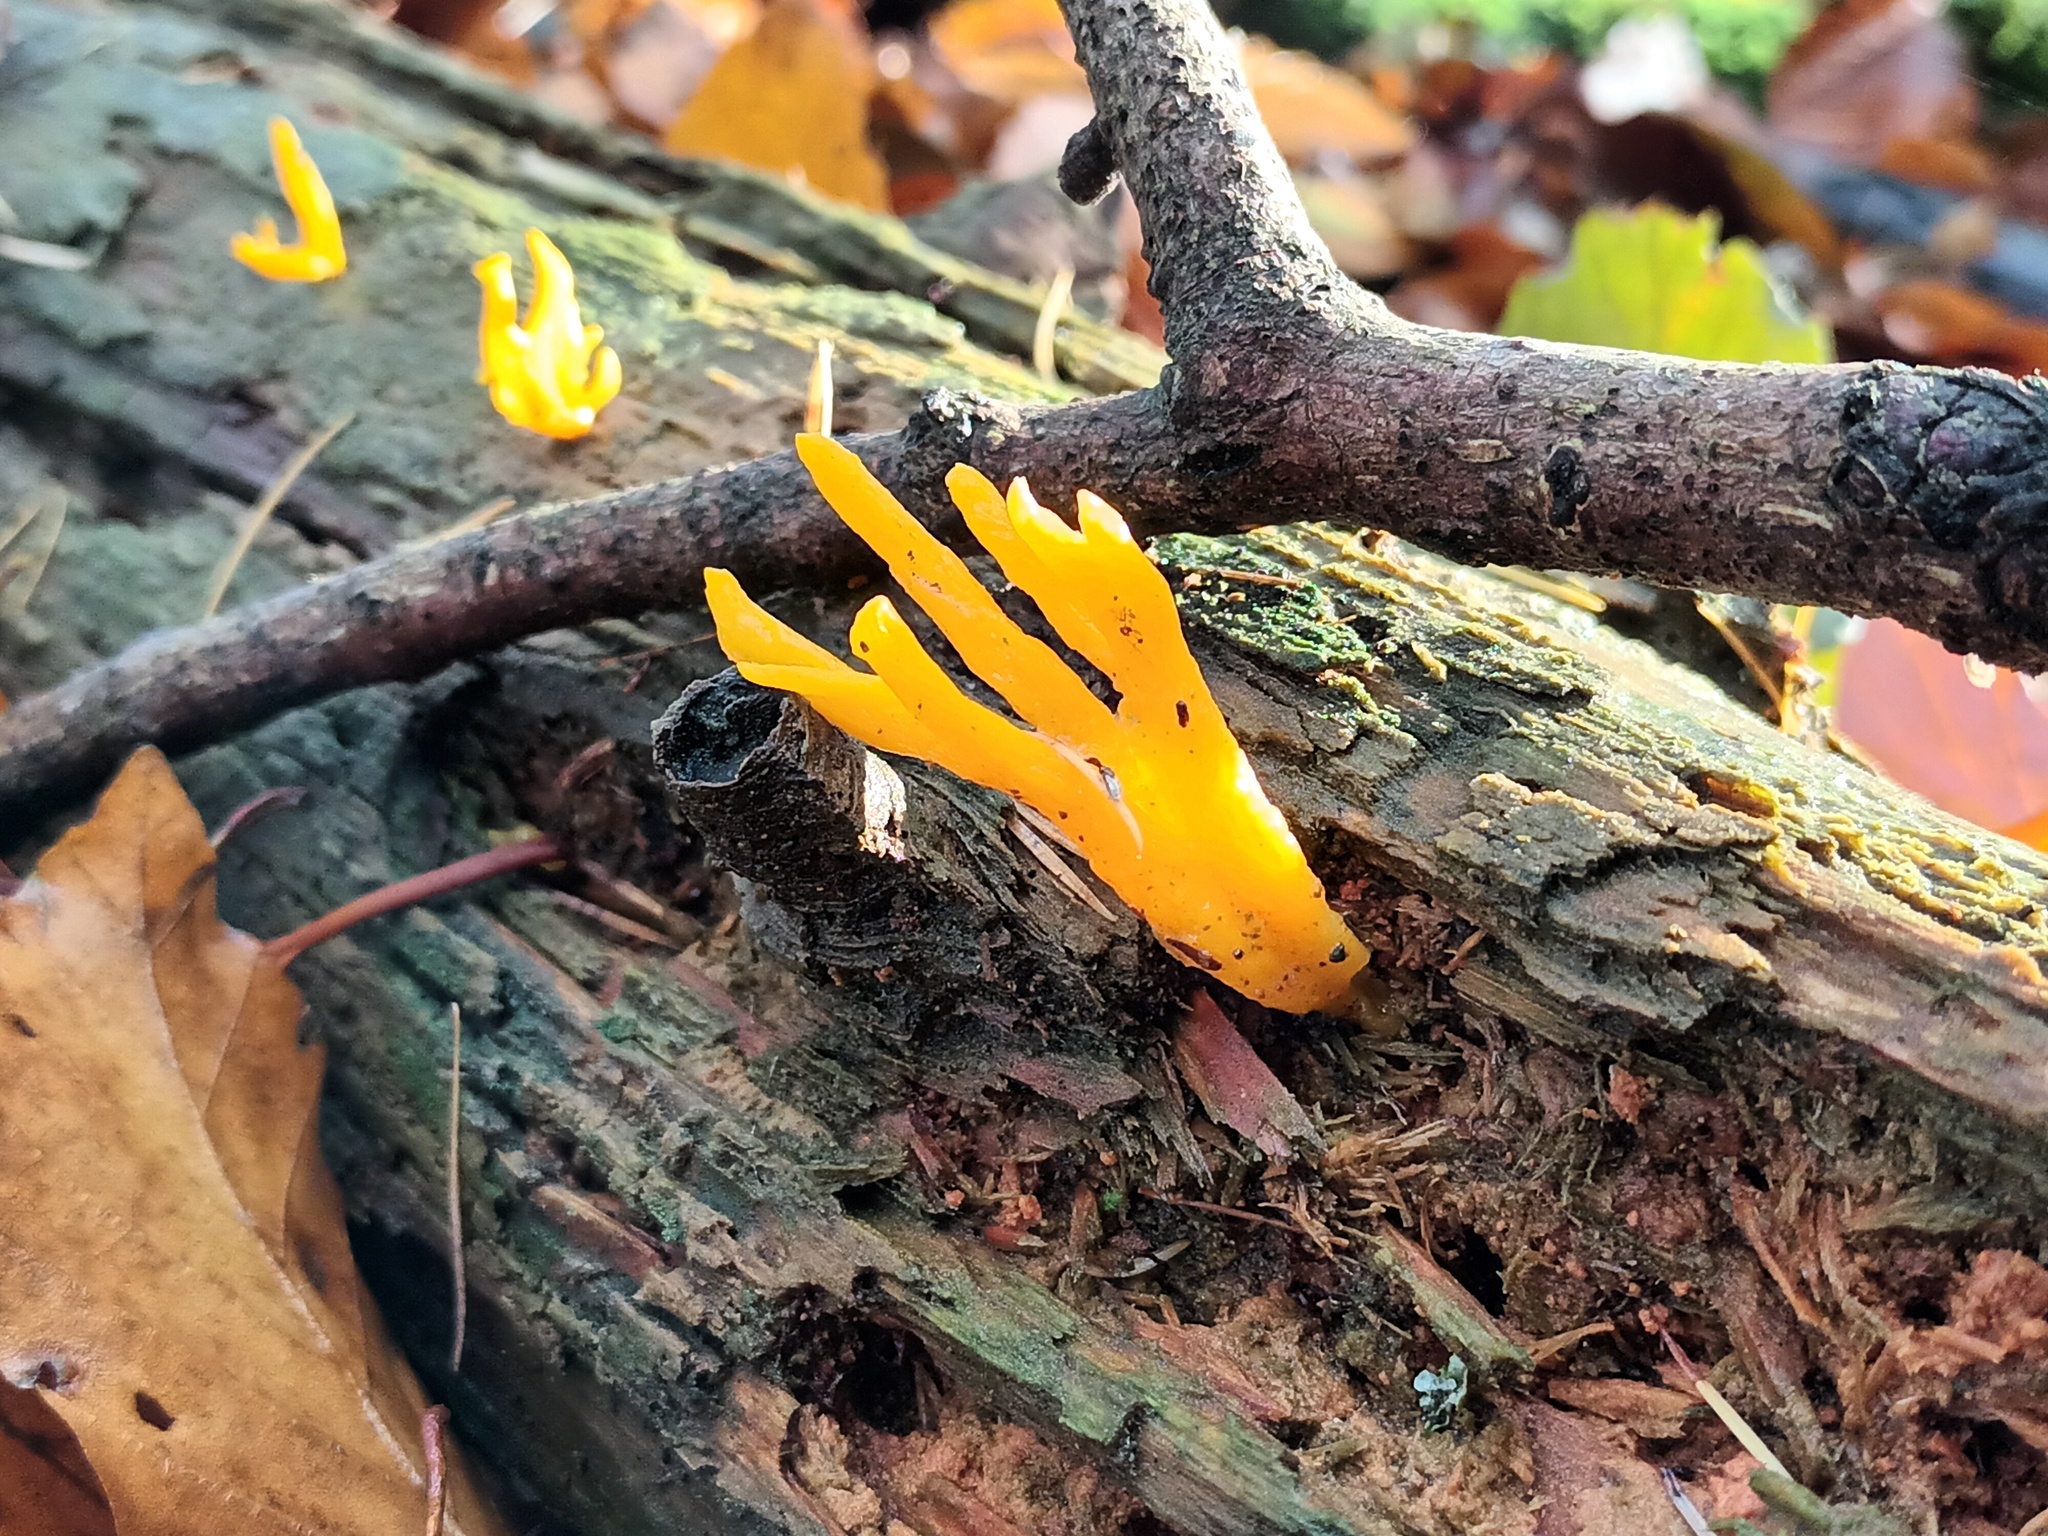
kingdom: Fungi
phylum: Basidiomycota
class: Dacrymycetes
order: Dacrymycetales
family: Dacrymycetaceae
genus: Calocera
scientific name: Calocera viscosa
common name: Yellow stagshorn
